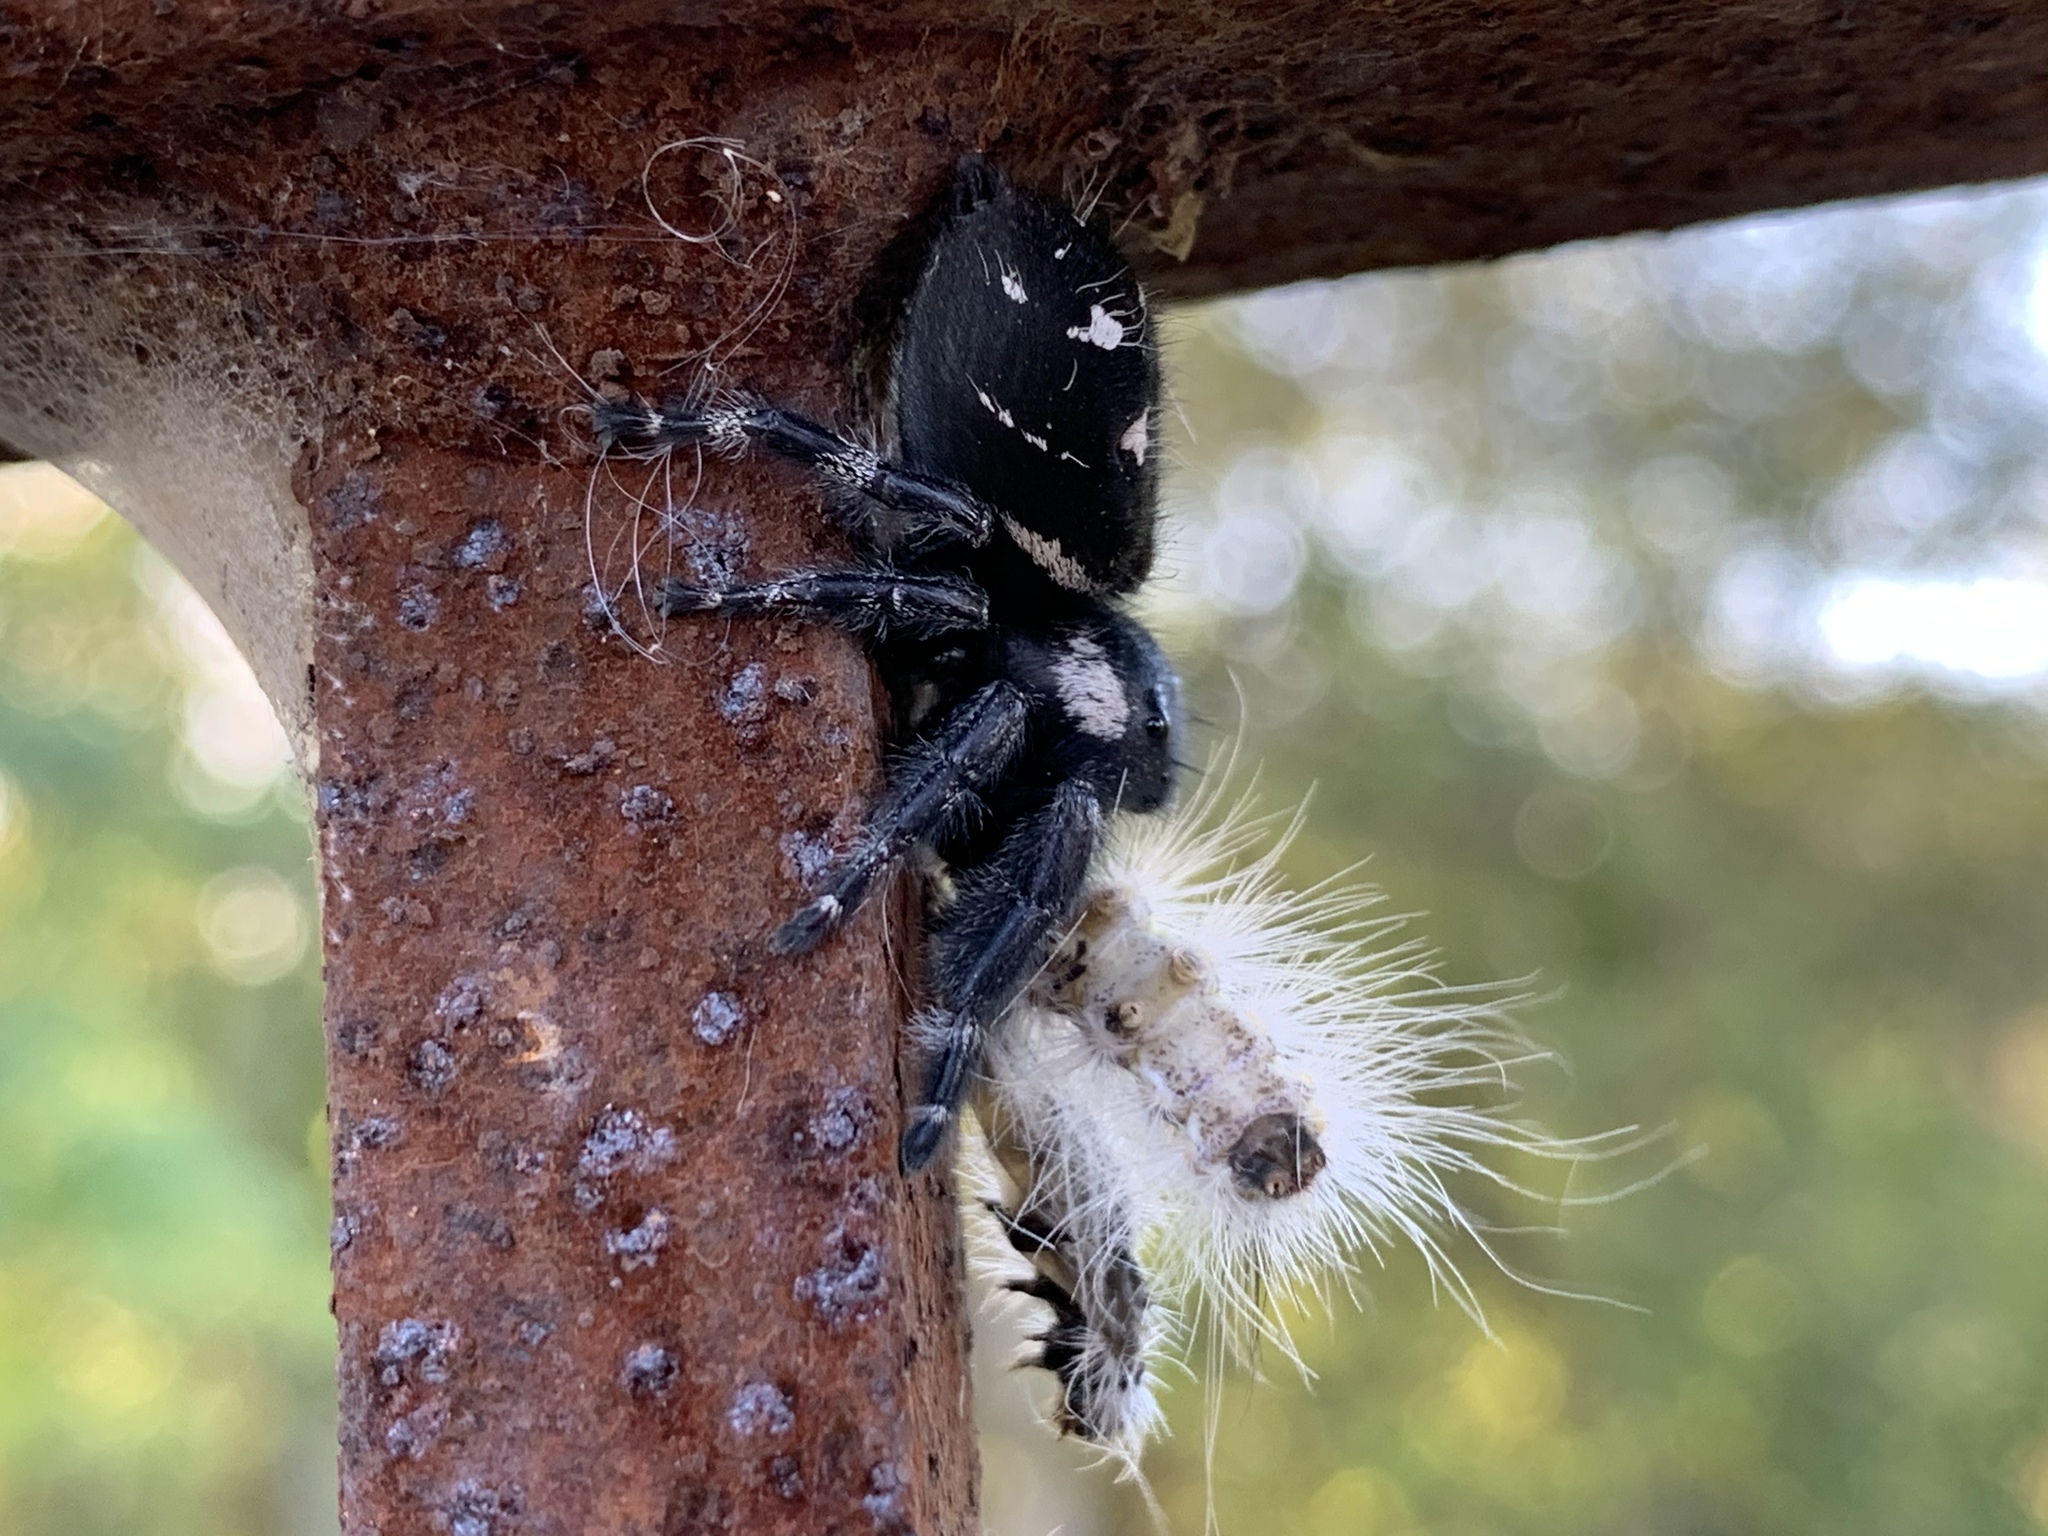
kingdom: Animalia
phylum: Arthropoda
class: Arachnida
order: Araneae
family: Salticidae
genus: Phidippus
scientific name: Phidippus audax
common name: Bold jumper
